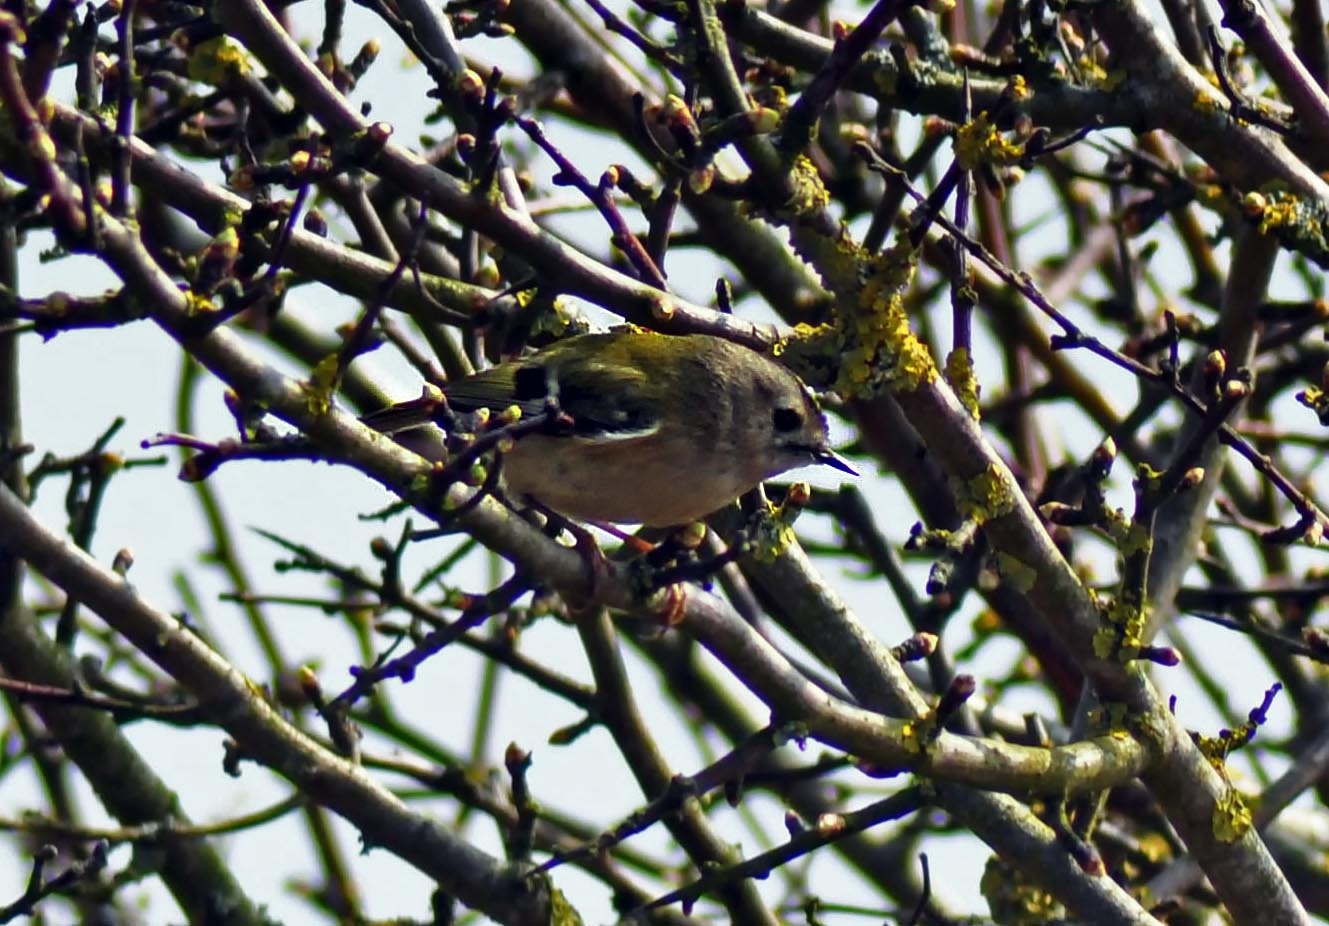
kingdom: Animalia
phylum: Chordata
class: Aves
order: Passeriformes
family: Regulidae
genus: Regulus
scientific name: Regulus regulus
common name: Goldcrest
